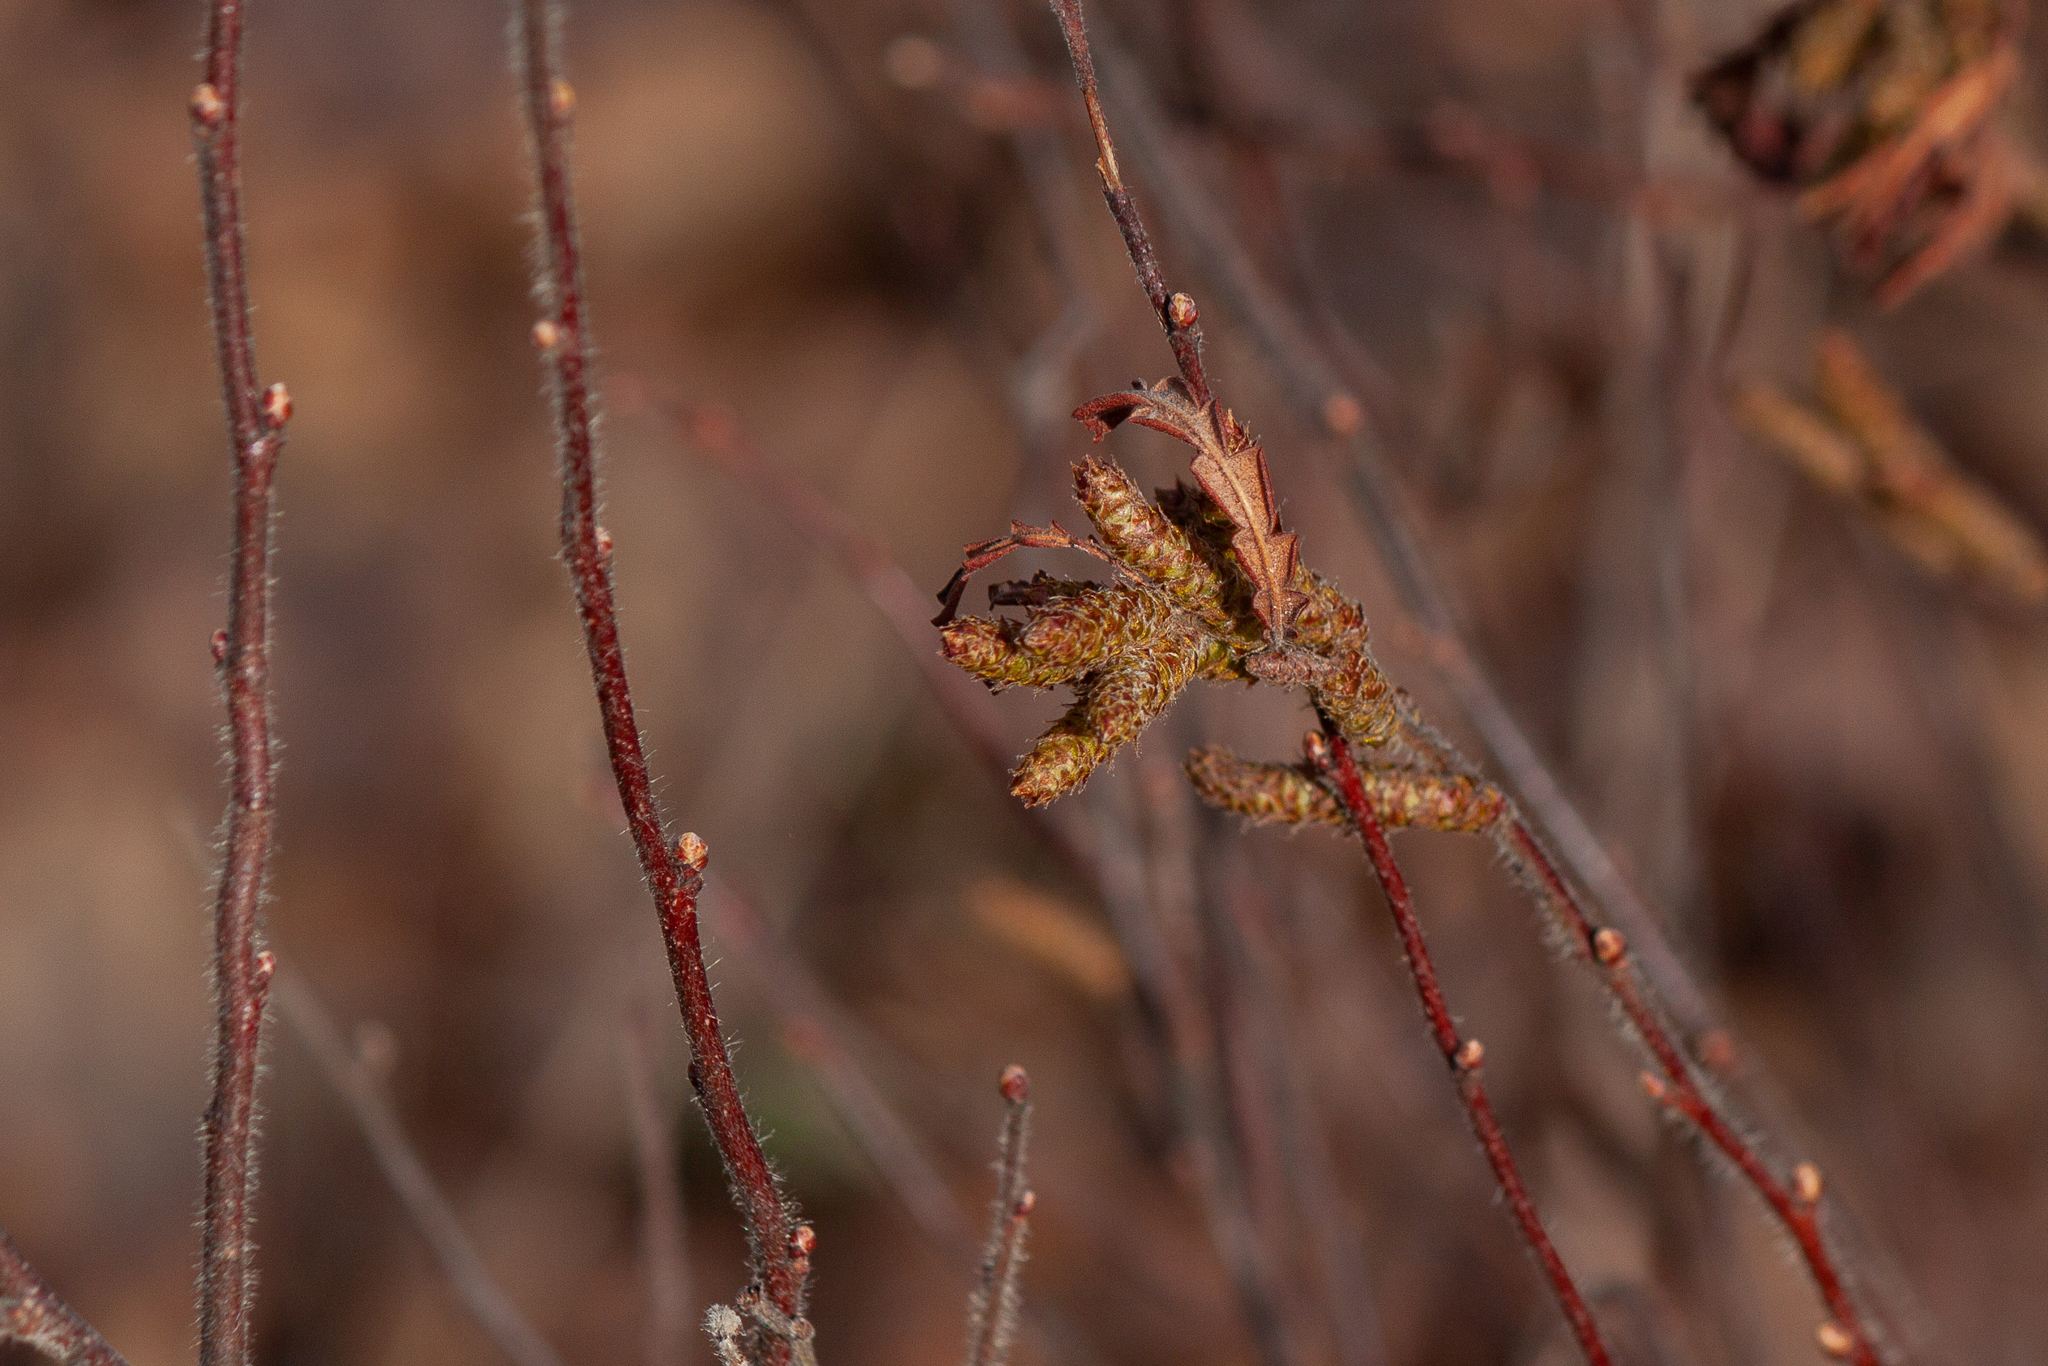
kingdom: Plantae
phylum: Tracheophyta
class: Magnoliopsida
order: Fagales
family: Myricaceae
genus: Comptonia
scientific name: Comptonia peregrina
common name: Sweet-fern
